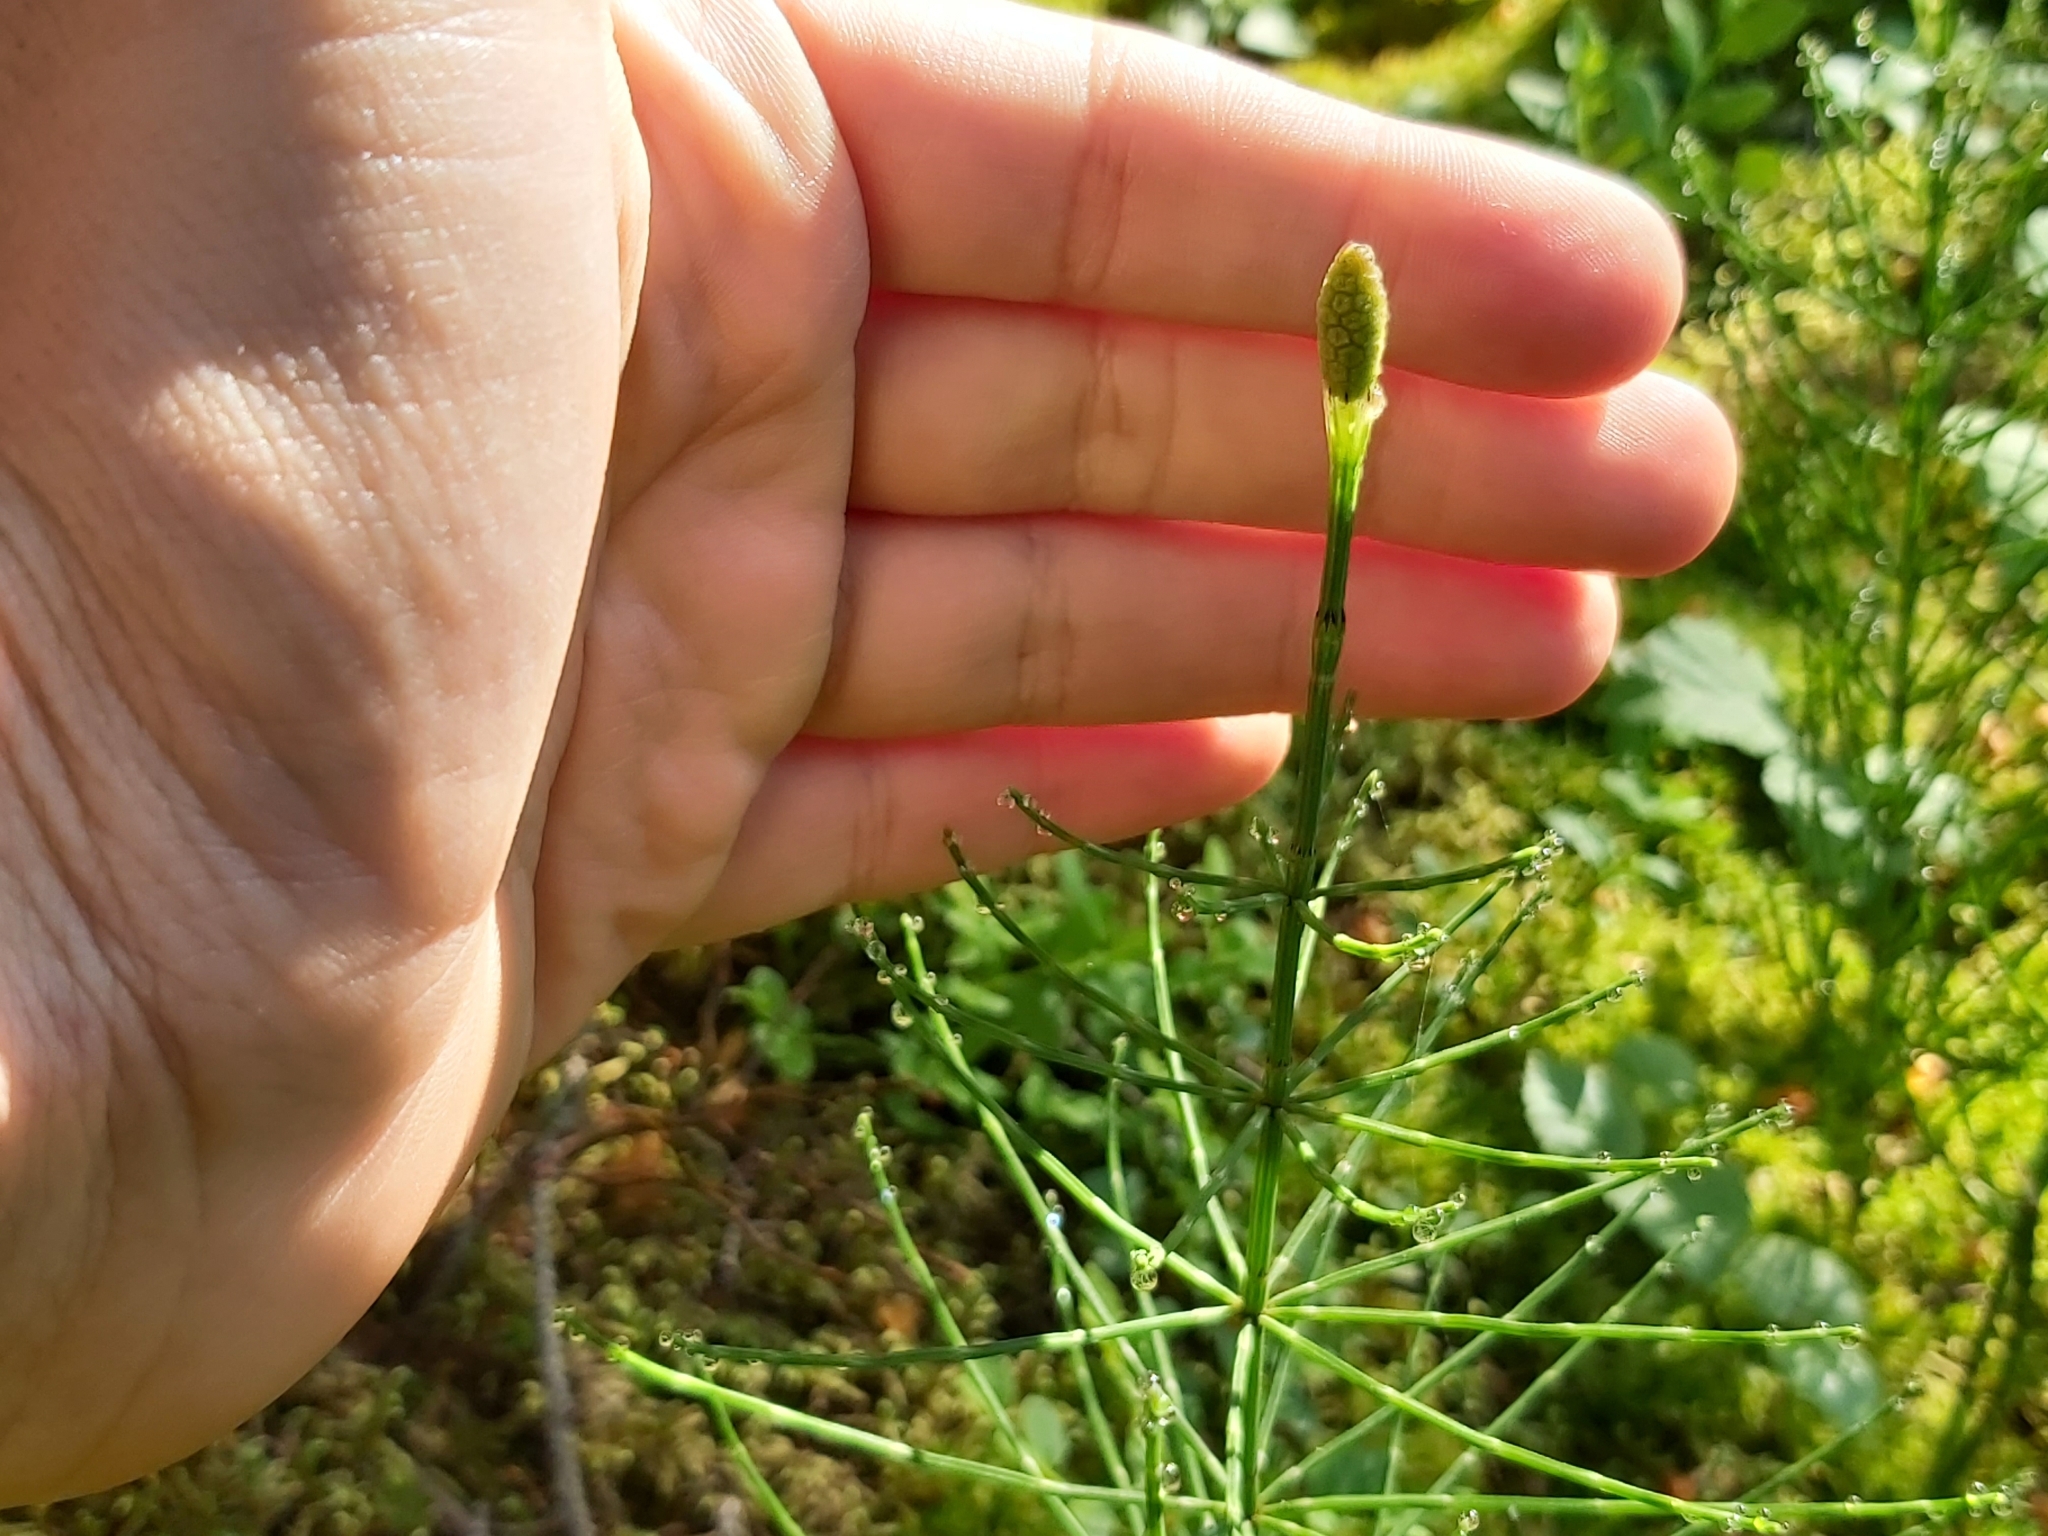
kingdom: Plantae
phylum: Tracheophyta
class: Polypodiopsida
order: Equisetales
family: Equisetaceae
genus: Equisetum
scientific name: Equisetum palustre
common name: Marsh horsetail
